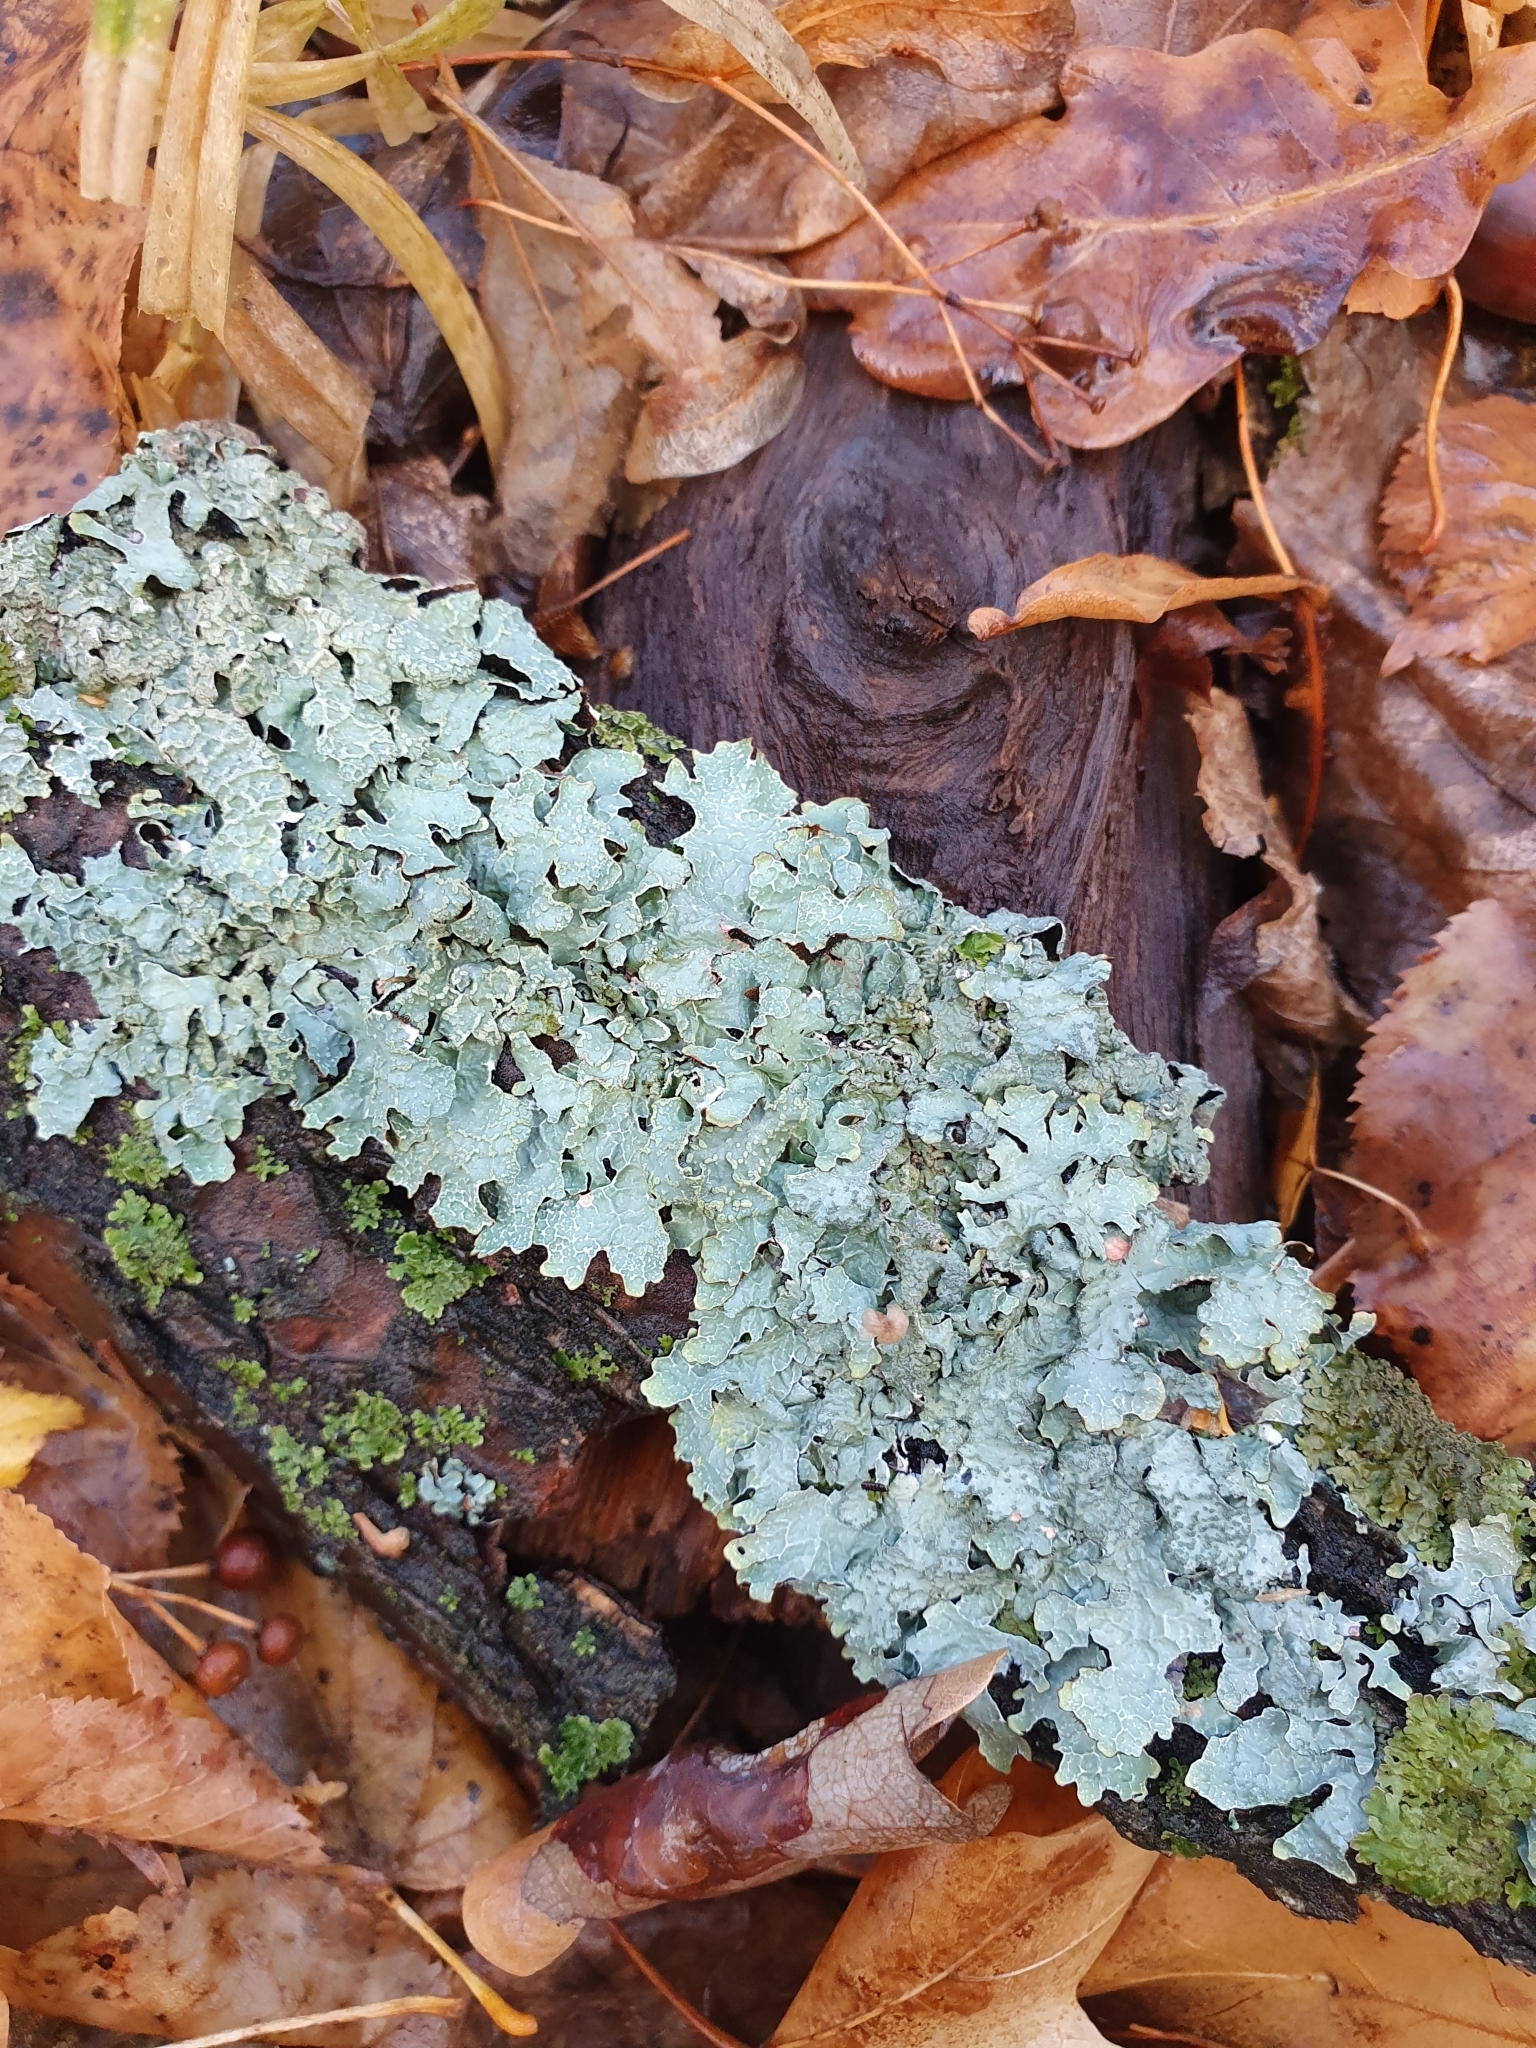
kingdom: Fungi
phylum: Ascomycota
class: Lecanoromycetes
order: Lecanorales
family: Parmeliaceae
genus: Parmelia
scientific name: Parmelia sulcata
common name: Netted shield lichen
